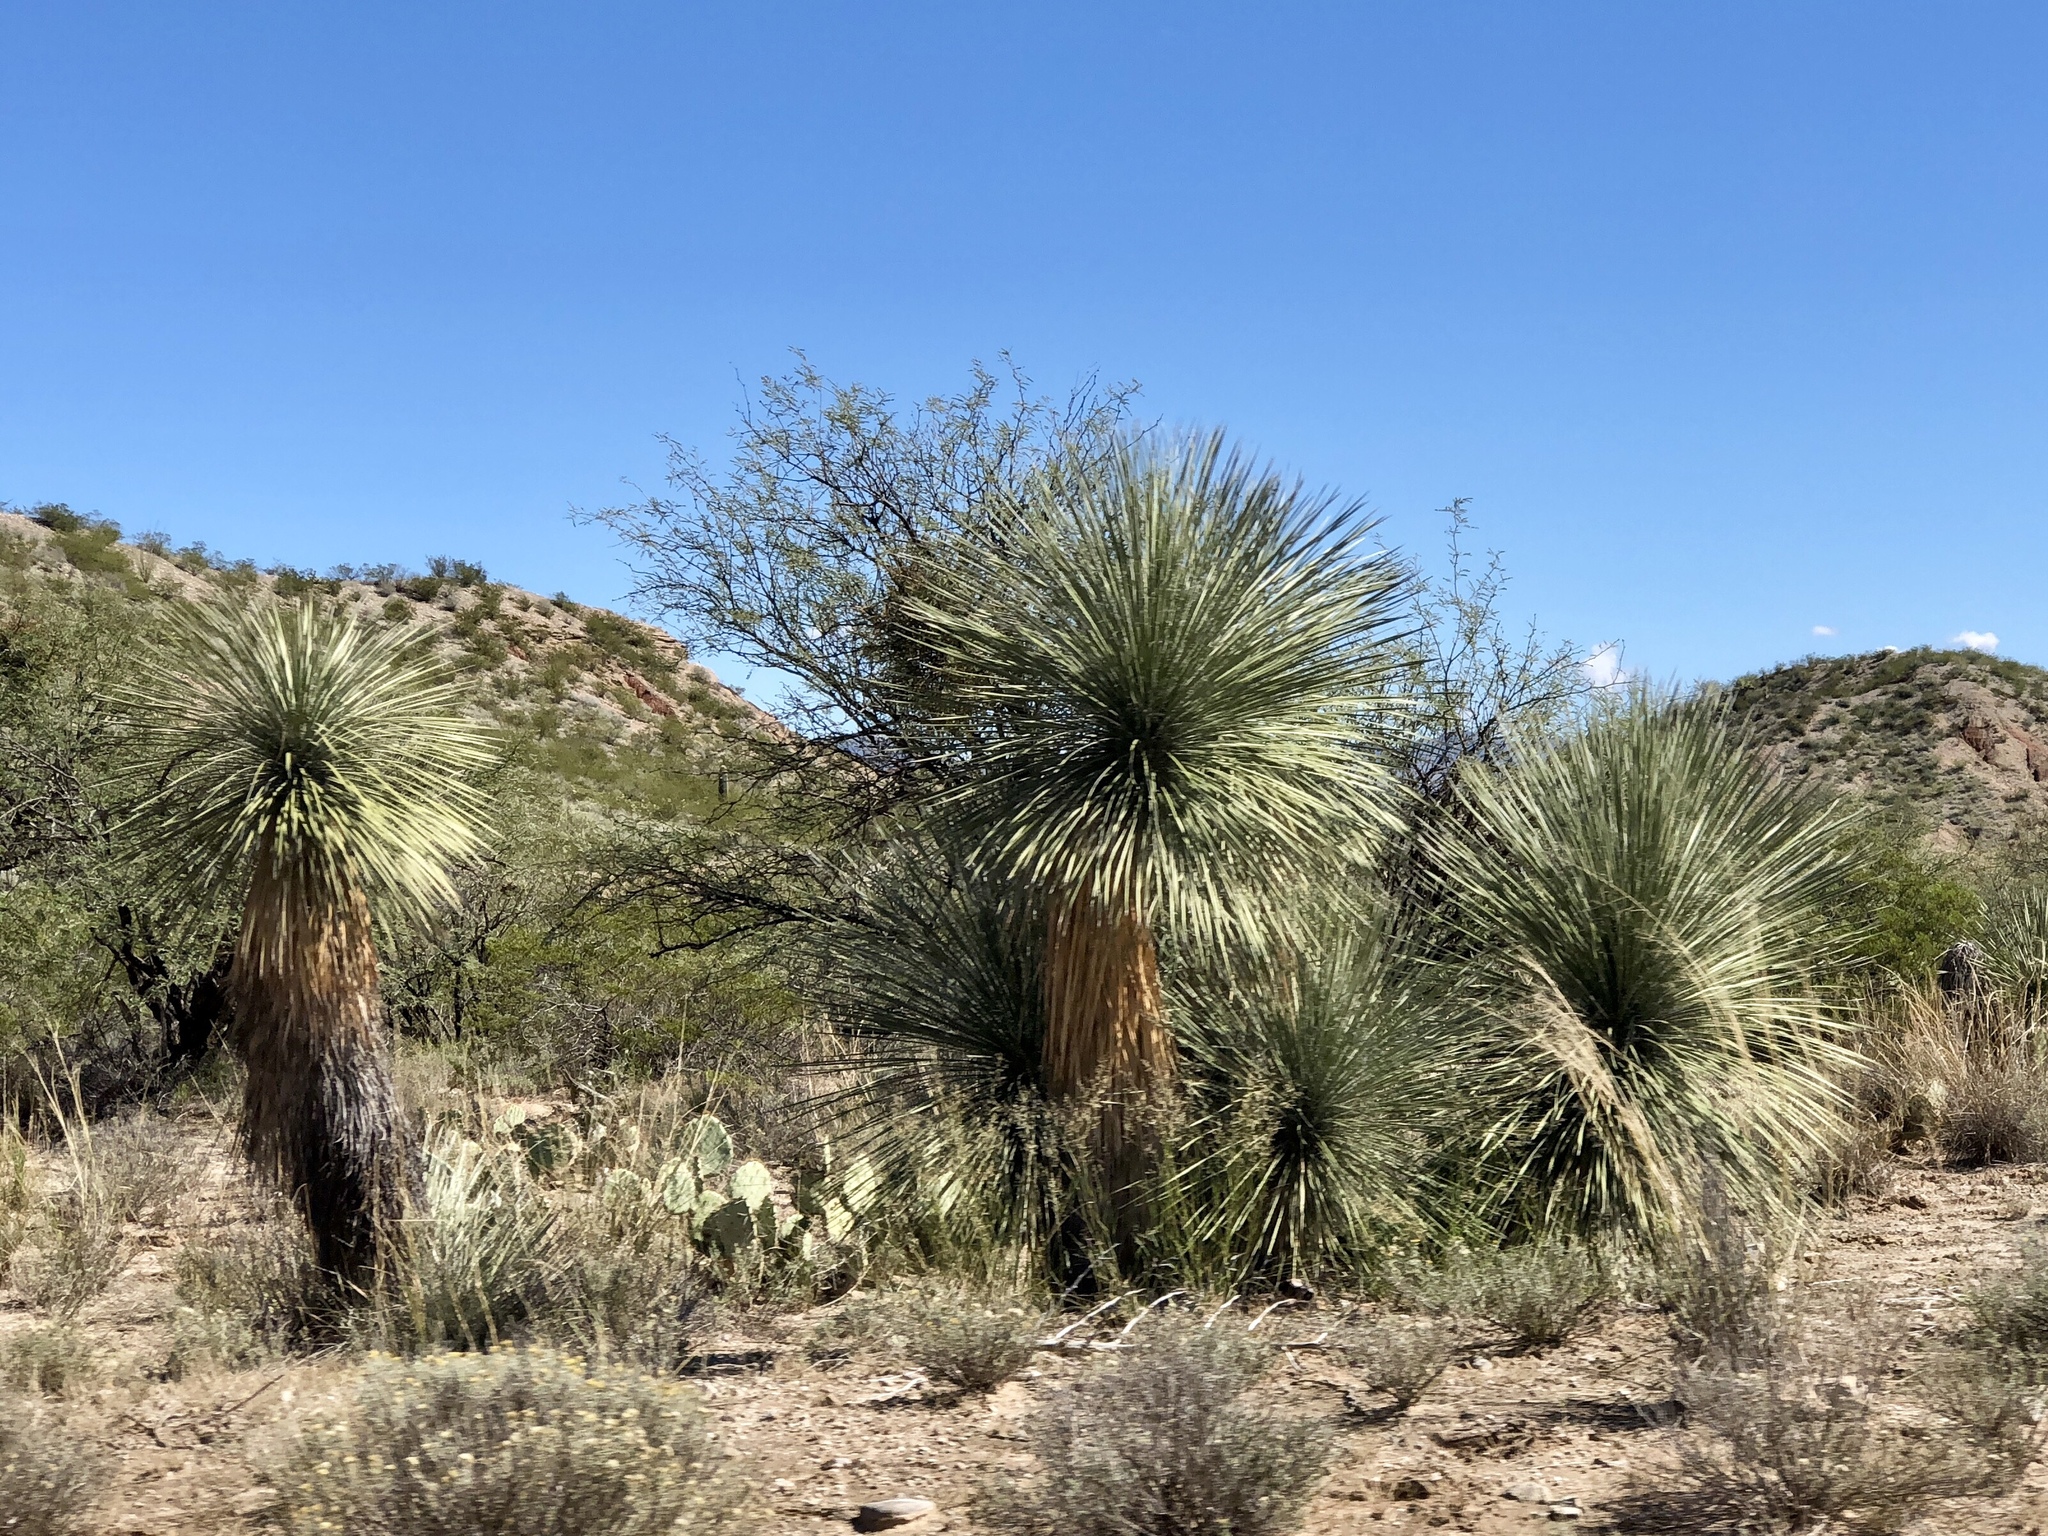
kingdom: Plantae
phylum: Tracheophyta
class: Liliopsida
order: Asparagales
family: Asparagaceae
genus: Yucca
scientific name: Yucca elata
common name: Palmella
